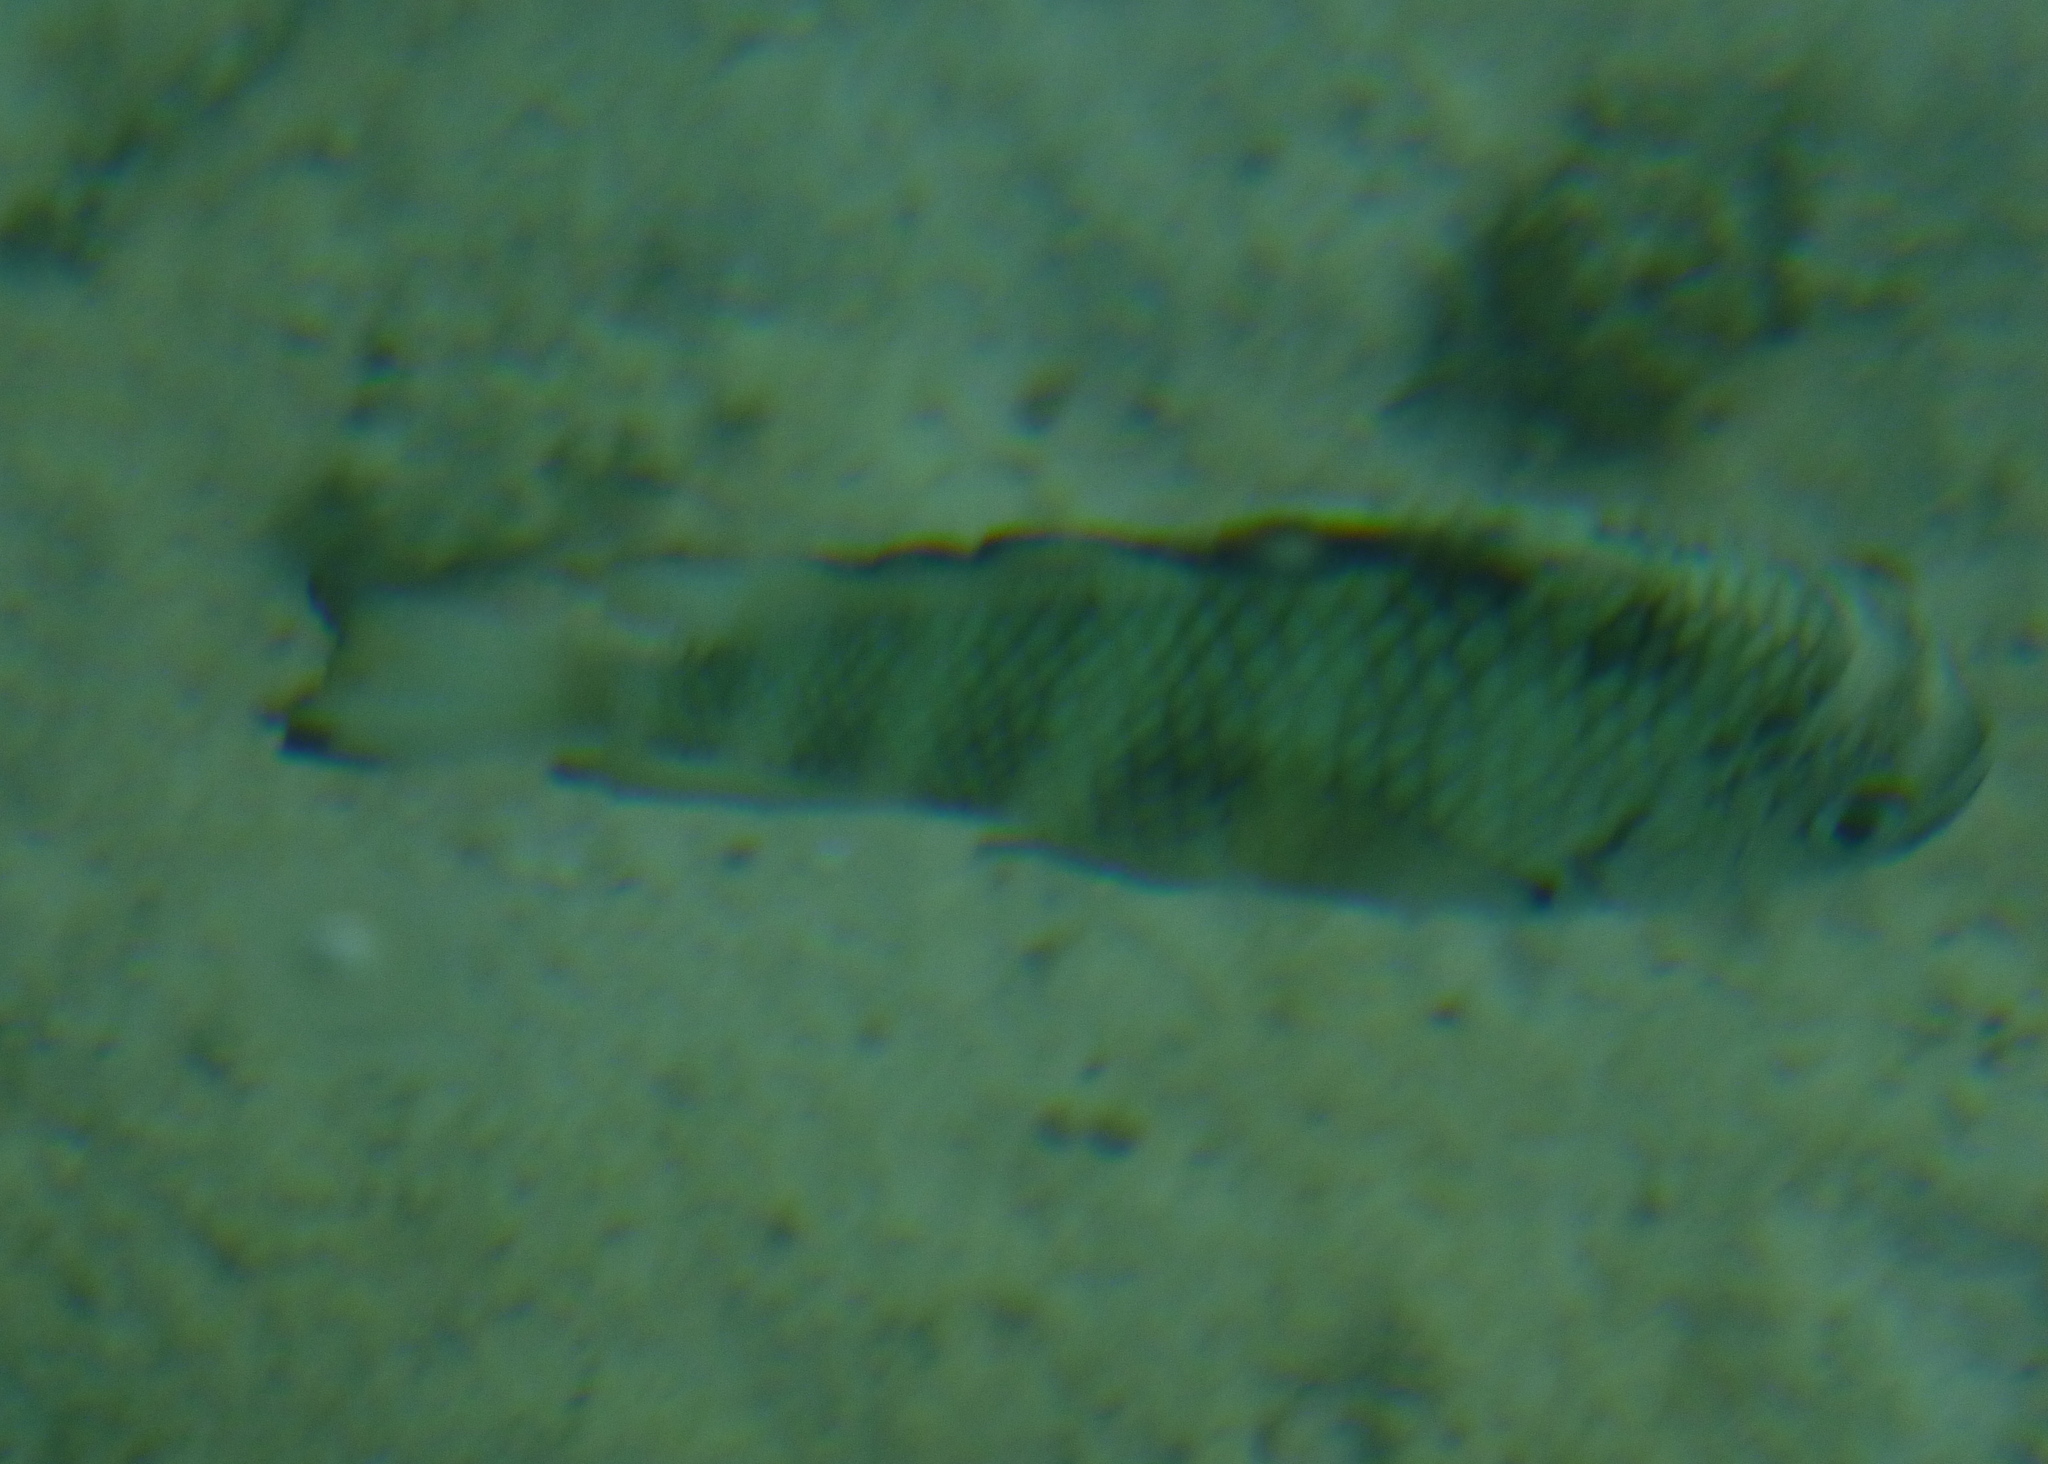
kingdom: Animalia
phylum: Chordata
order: Perciformes
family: Pomacentridae
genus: Abudefduf
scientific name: Abudefduf septemfasciatus
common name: Banded sergeant
